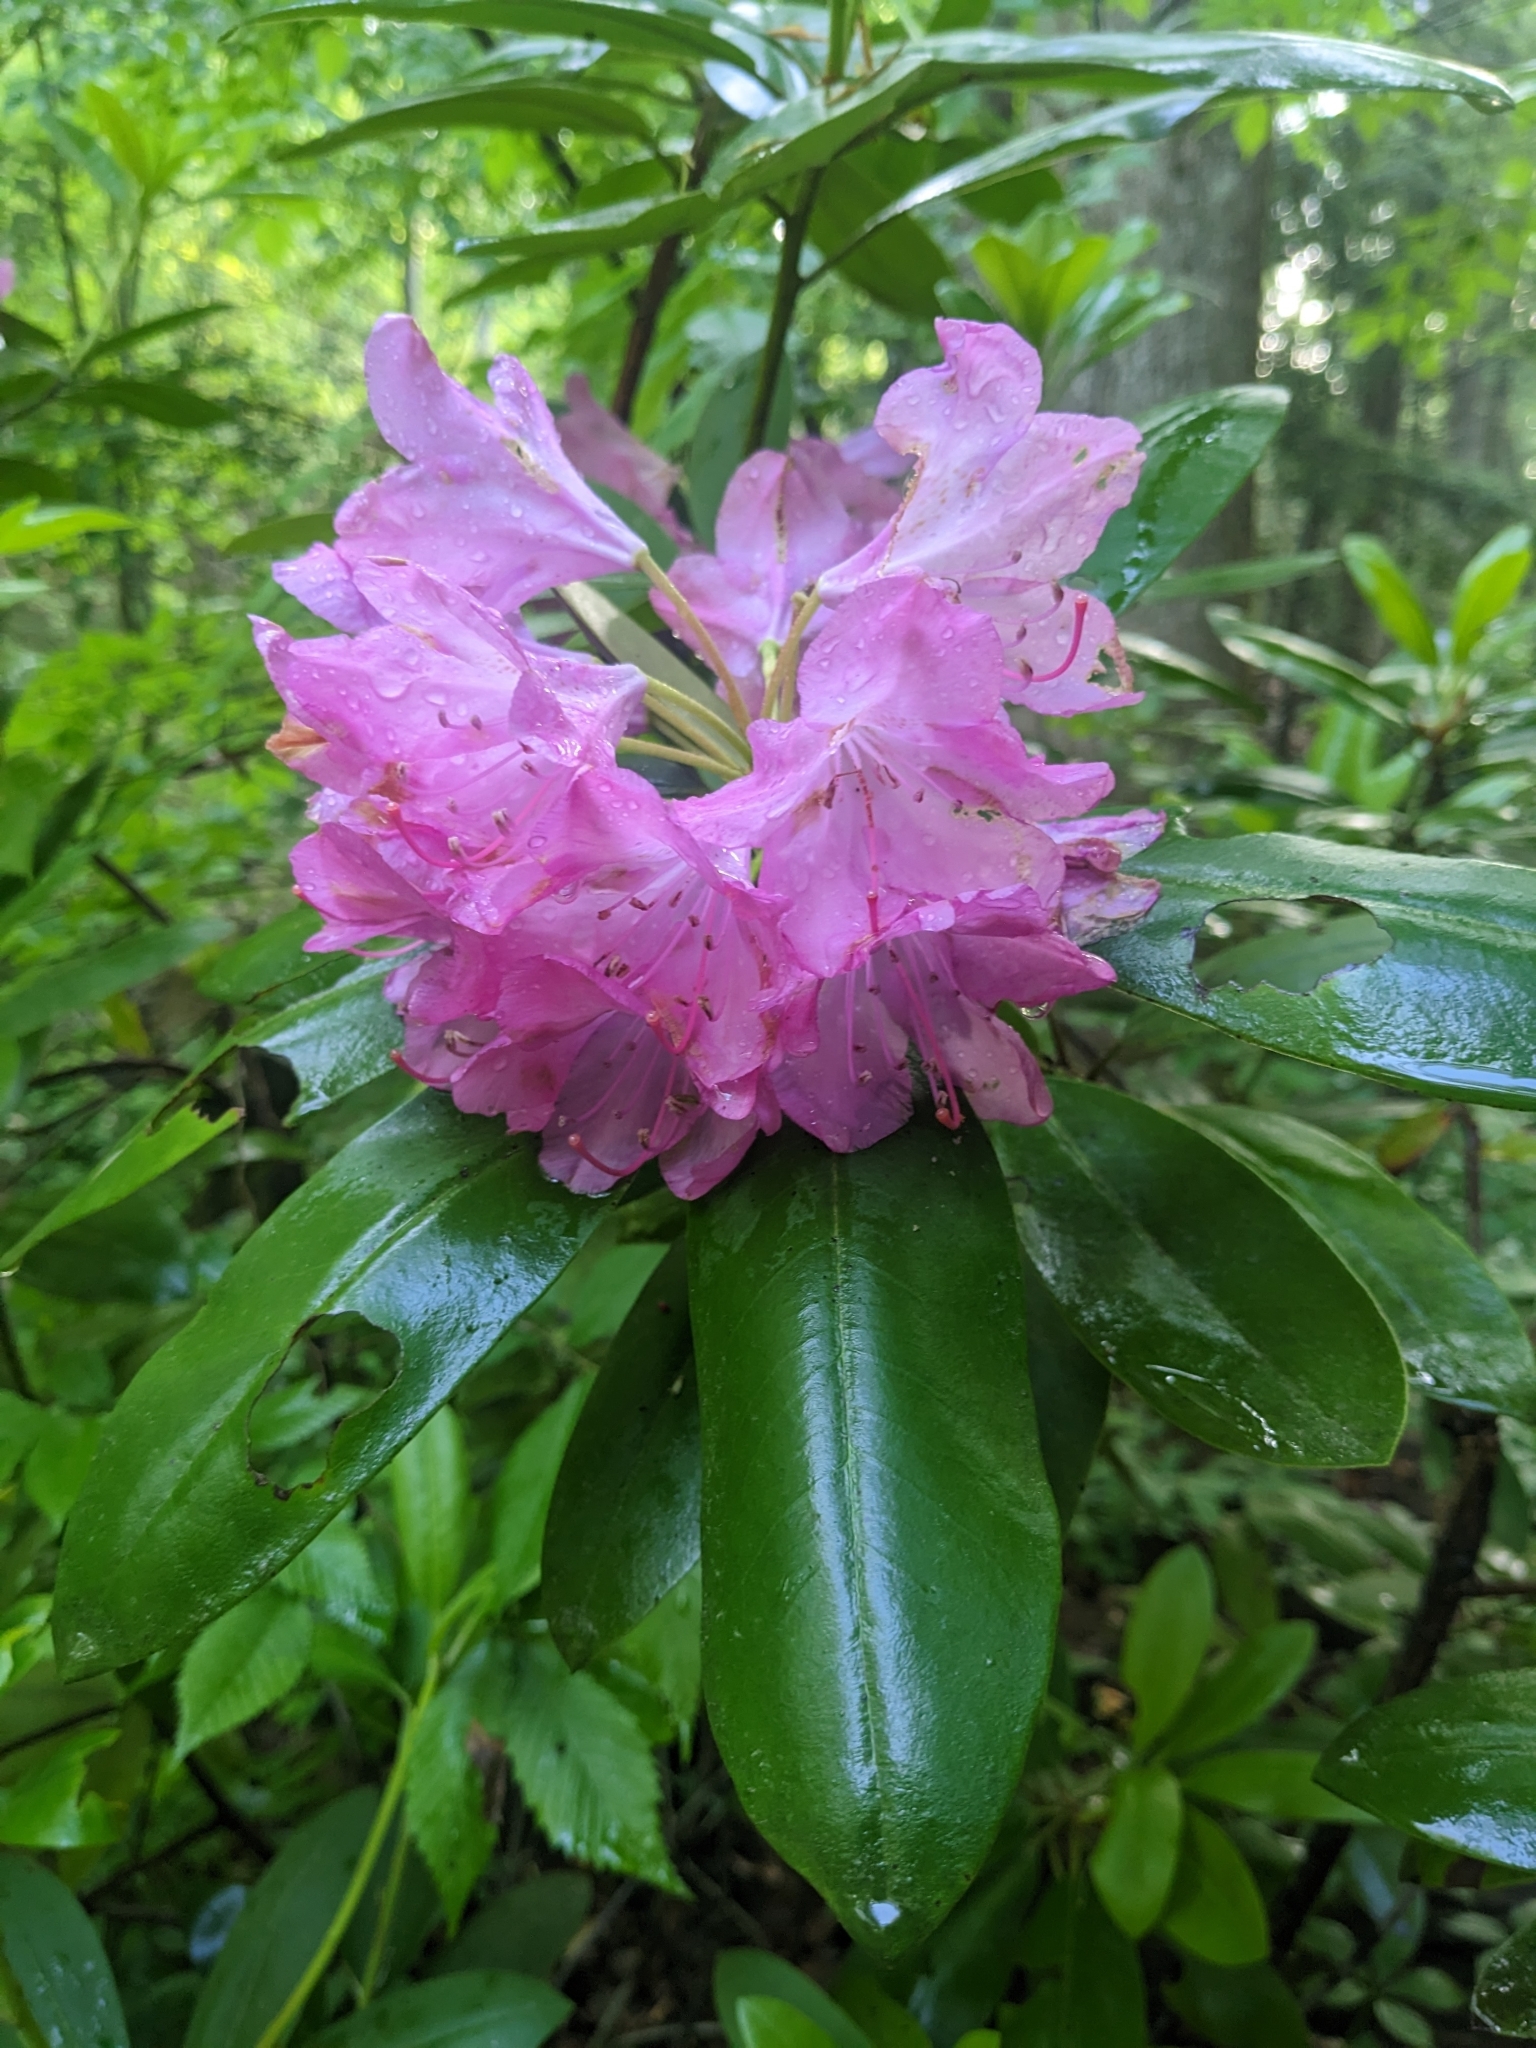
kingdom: Plantae
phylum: Tracheophyta
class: Magnoliopsida
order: Ericales
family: Ericaceae
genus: Rhododendron
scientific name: Rhododendron catawbiense
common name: Catawba rhododendron
